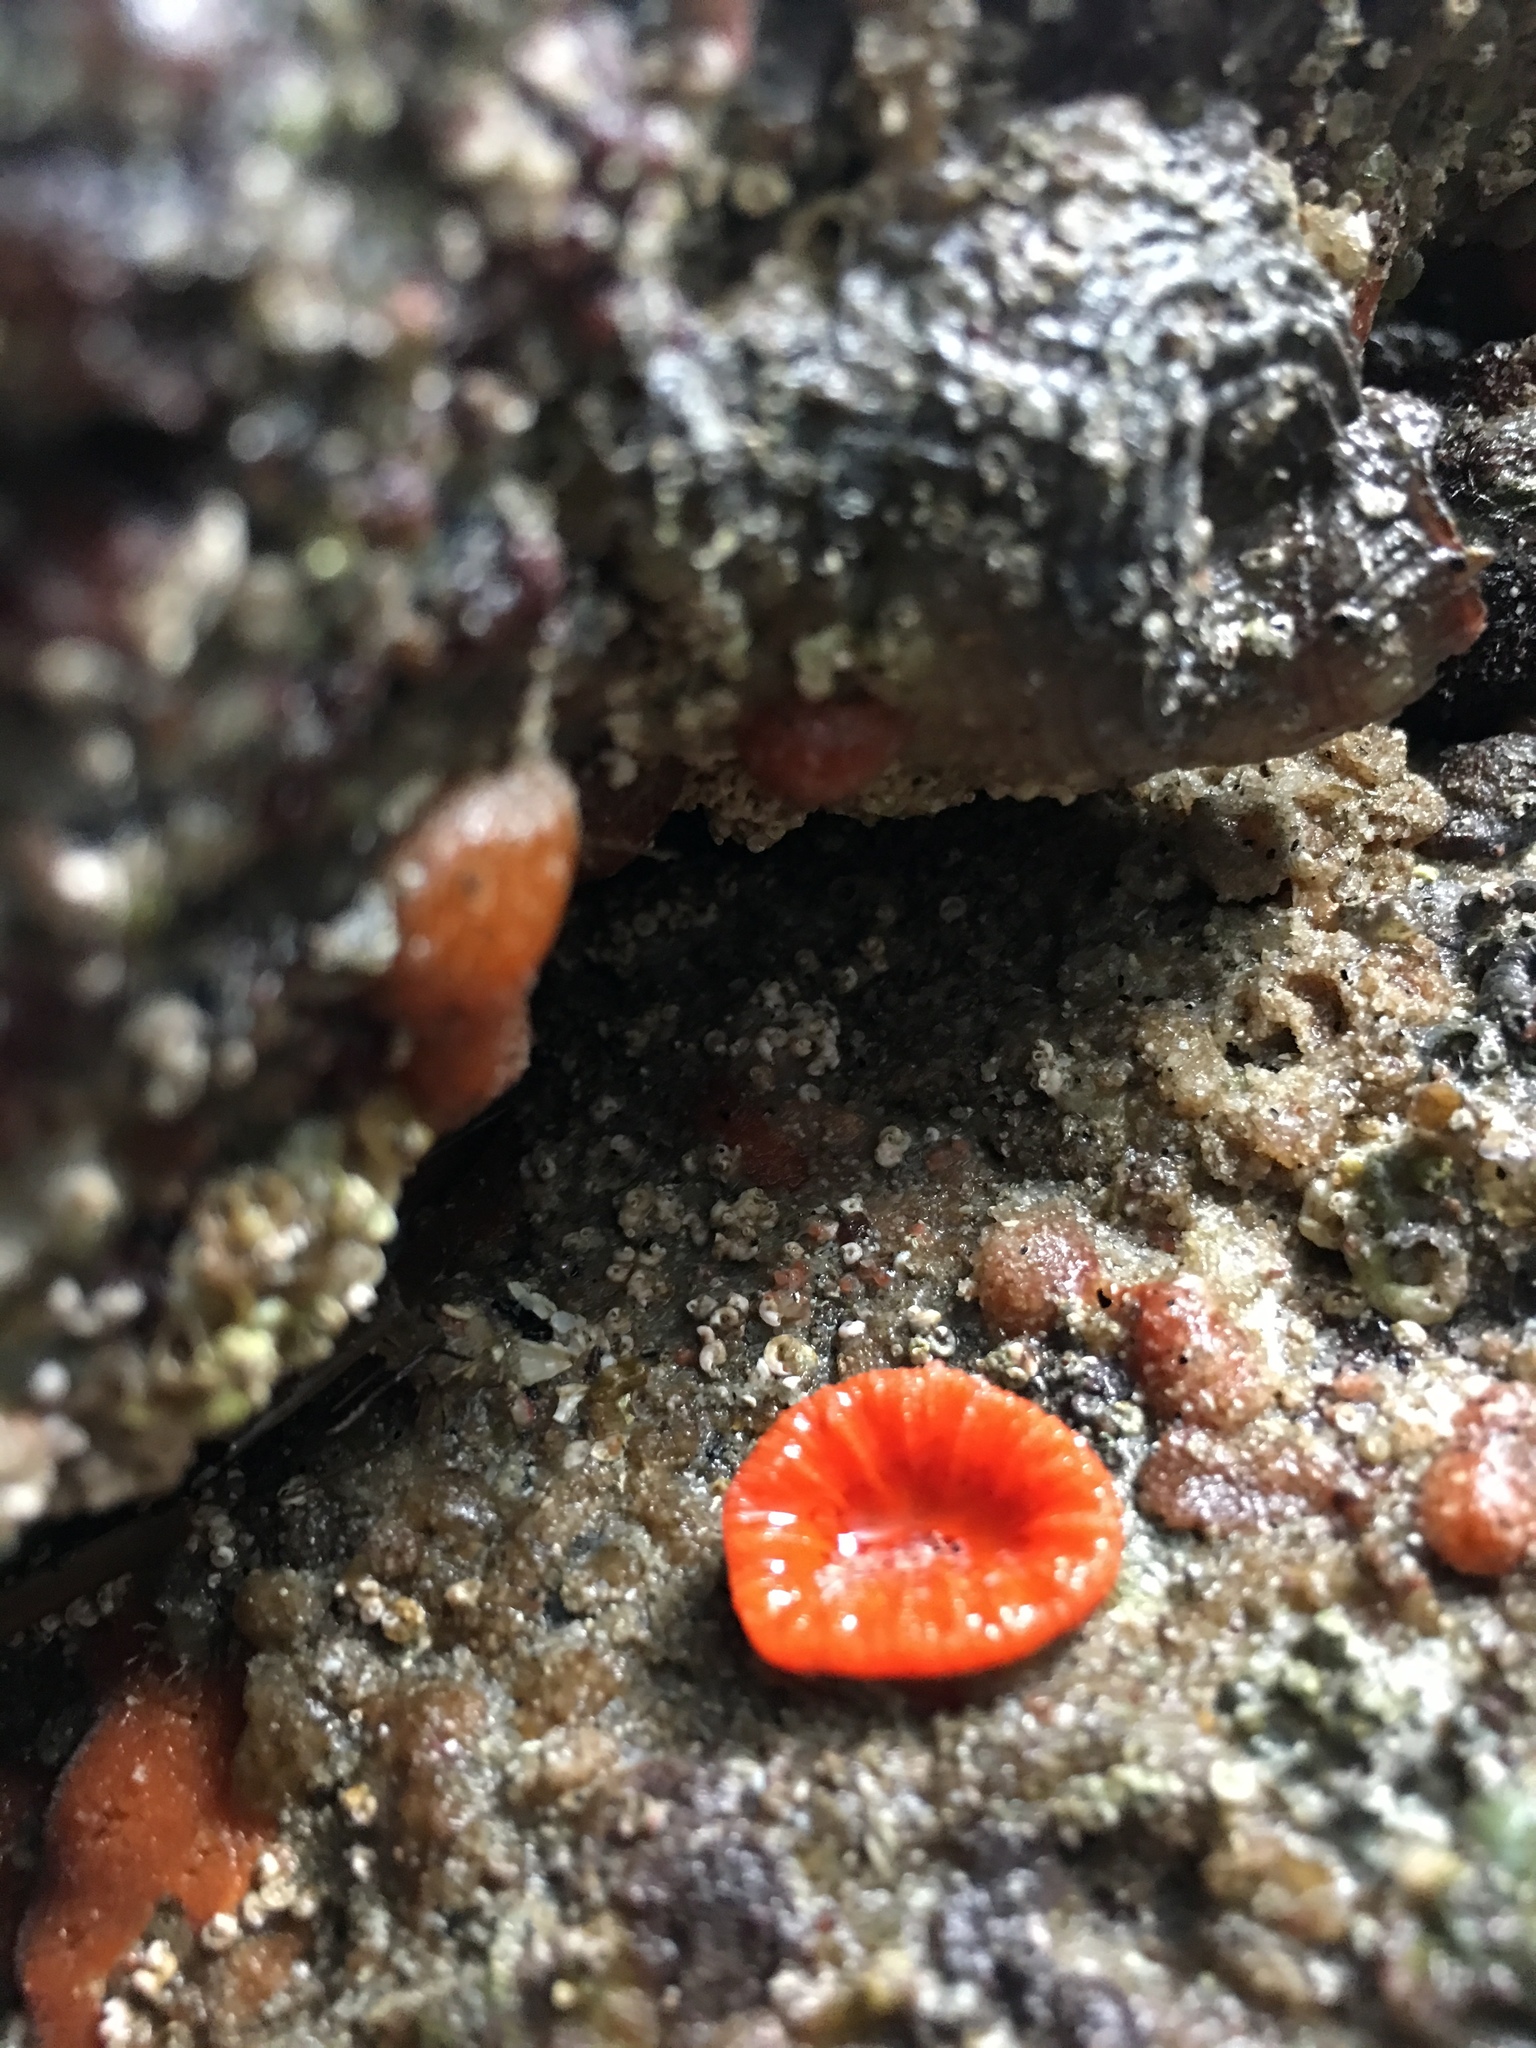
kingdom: Animalia
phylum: Cnidaria
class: Anthozoa
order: Scleractinia
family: Dendrophylliidae
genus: Balanophyllia
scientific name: Balanophyllia elegans
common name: Orange stony coral
